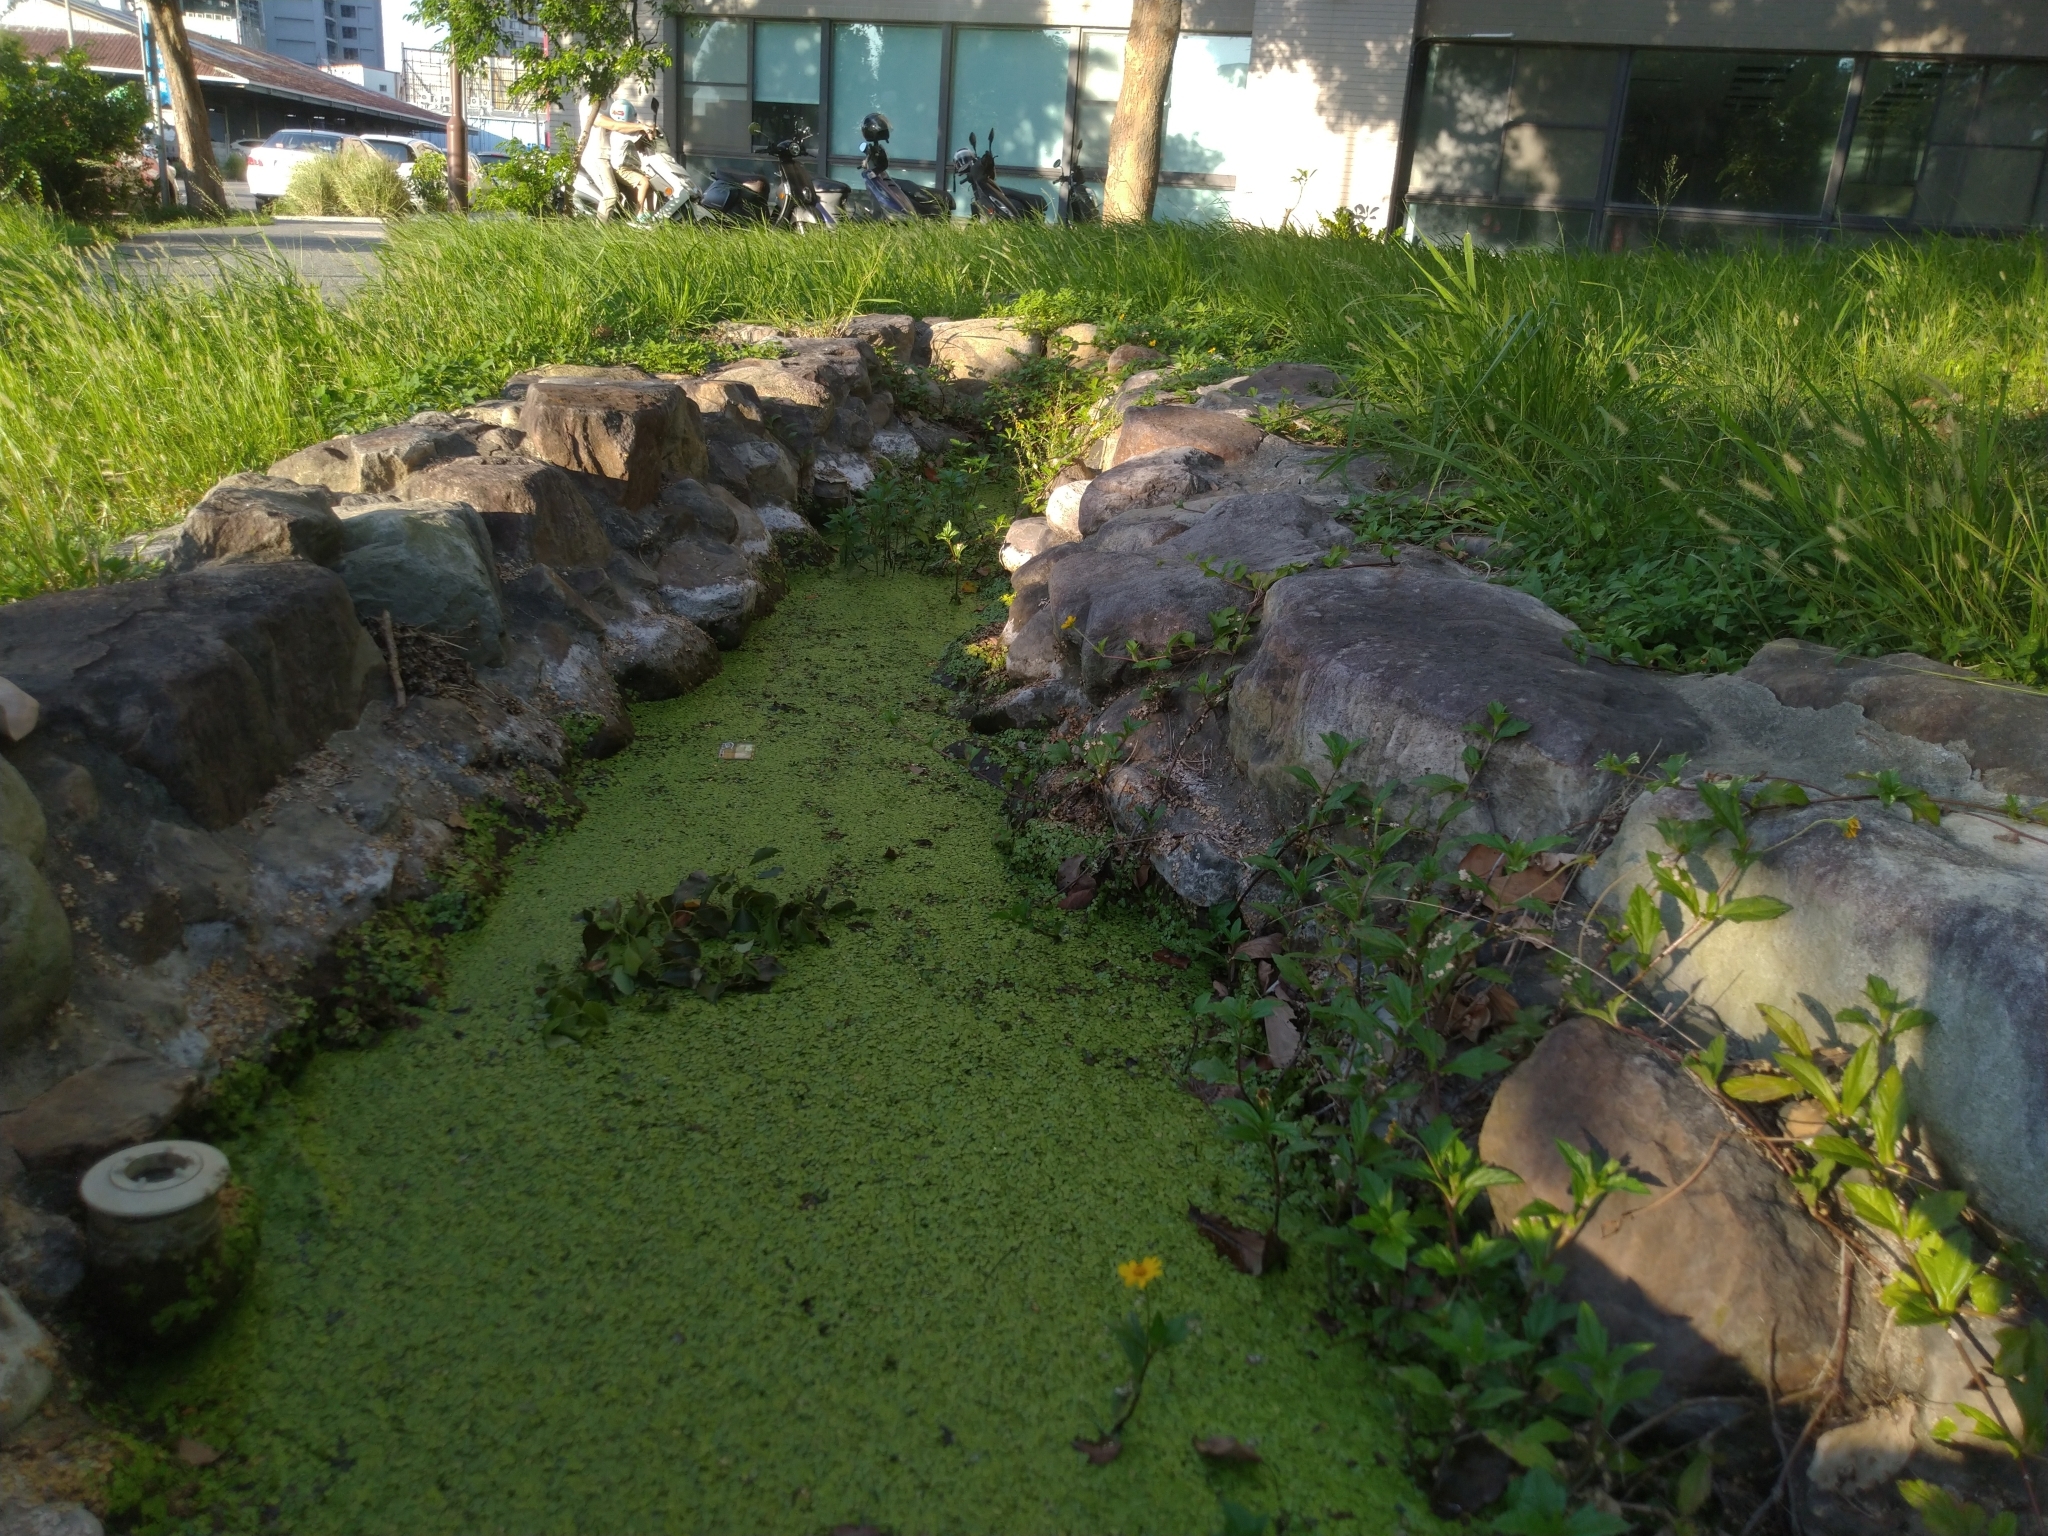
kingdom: Plantae
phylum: Tracheophyta
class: Liliopsida
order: Alismatales
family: Araceae
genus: Spirodela
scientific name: Spirodela polyrhiza
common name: Great duckweed
